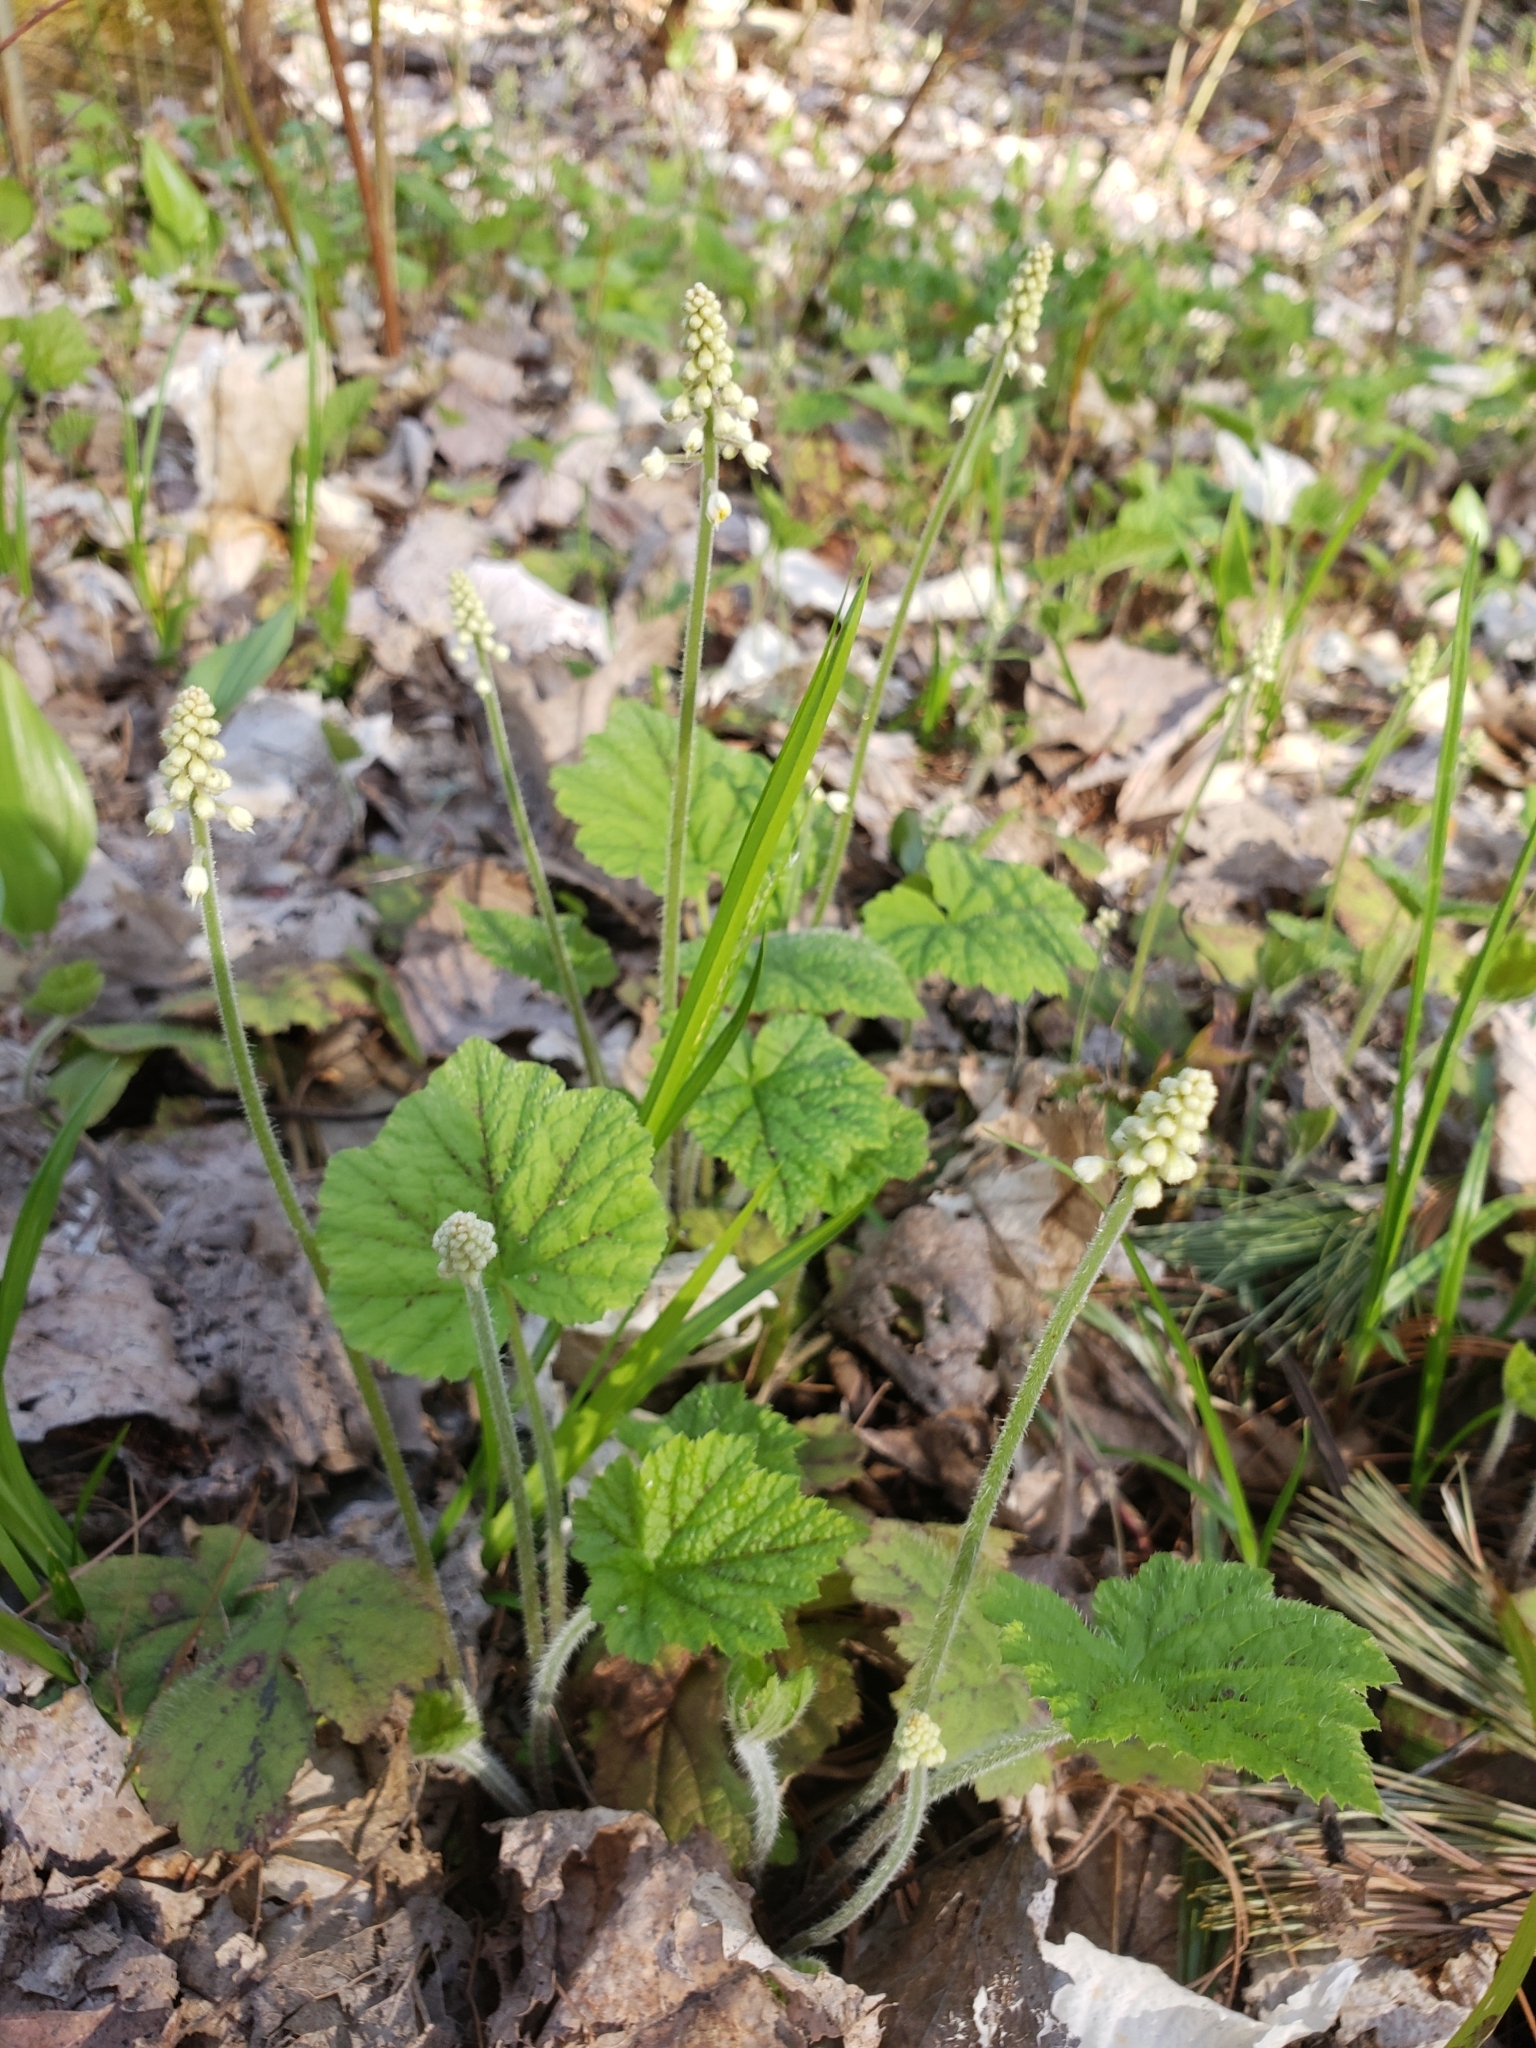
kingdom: Plantae
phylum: Tracheophyta
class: Magnoliopsida
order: Saxifragales
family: Saxifragaceae
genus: Tiarella
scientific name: Tiarella stolonifera
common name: Stoloniferous foamflower
